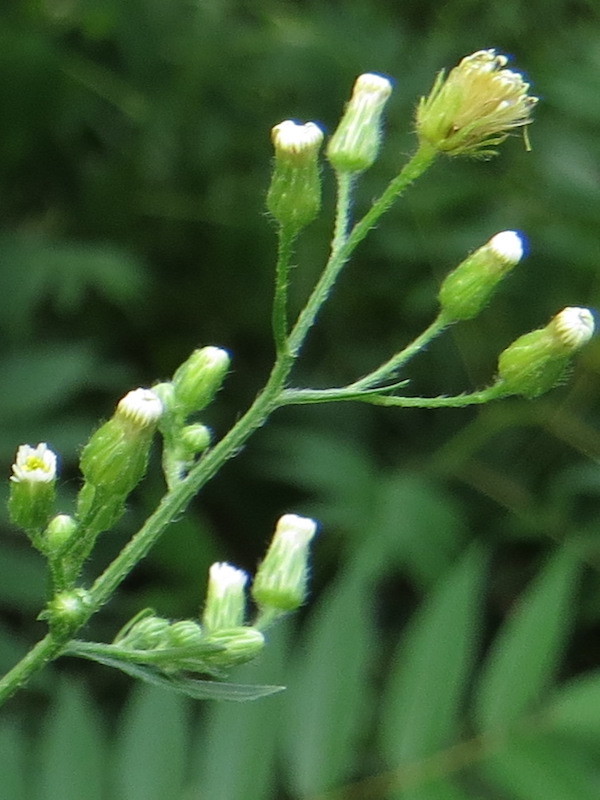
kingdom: Plantae
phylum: Tracheophyta
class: Magnoliopsida
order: Asterales
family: Asteraceae
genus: Erigeron
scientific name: Erigeron canadensis
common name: Canadian fleabane
